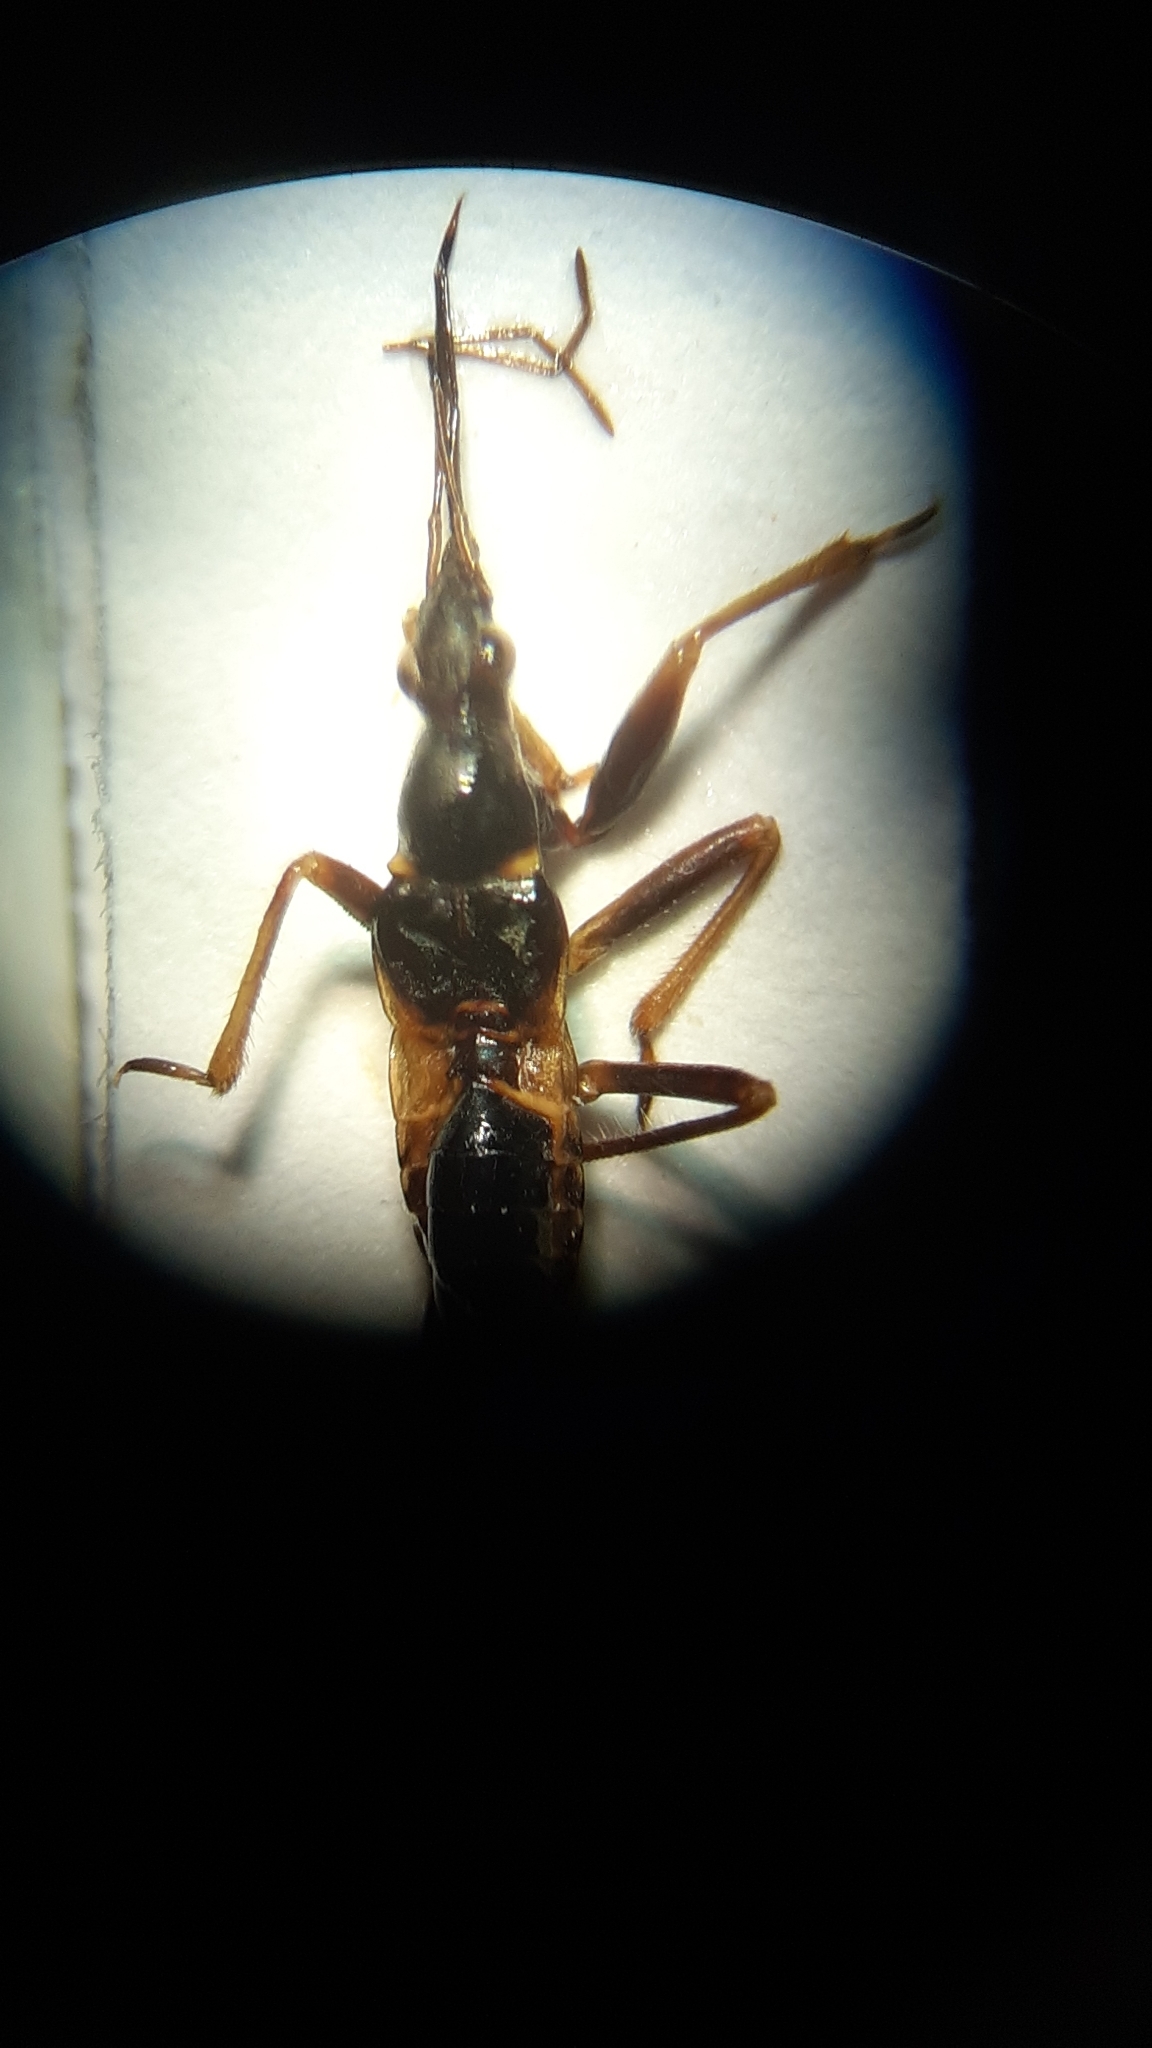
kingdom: Animalia
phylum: Arthropoda
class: Insecta
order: Hemiptera
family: Nabidae
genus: Himacerus
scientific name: Himacerus mirmicoides
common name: Ant damsel bug
